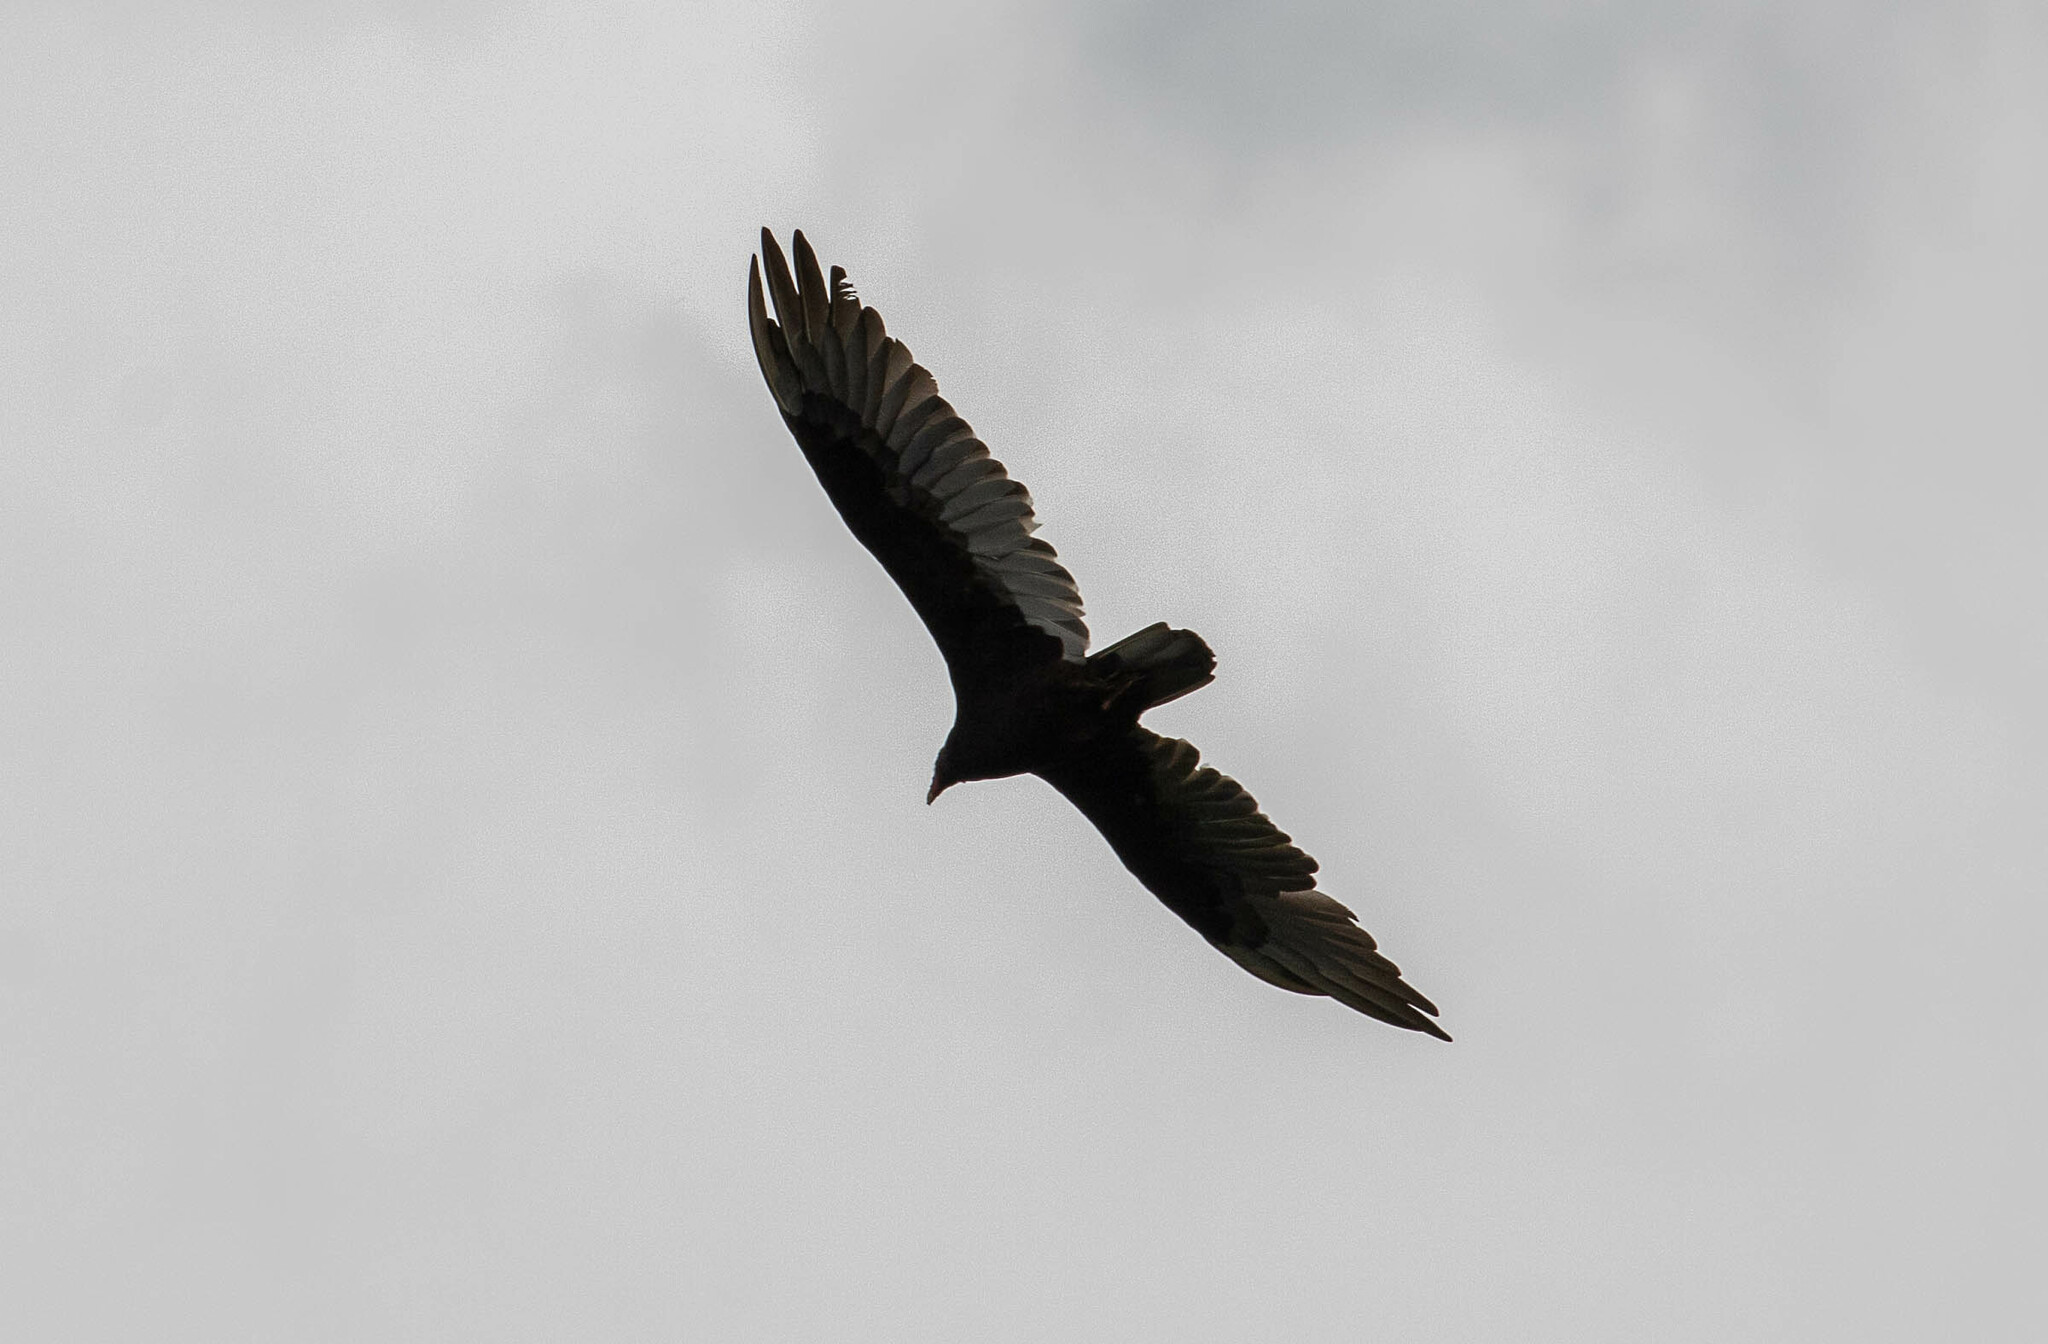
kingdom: Animalia
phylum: Chordata
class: Aves
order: Accipitriformes
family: Cathartidae
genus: Cathartes
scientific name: Cathartes aura
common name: Turkey vulture
